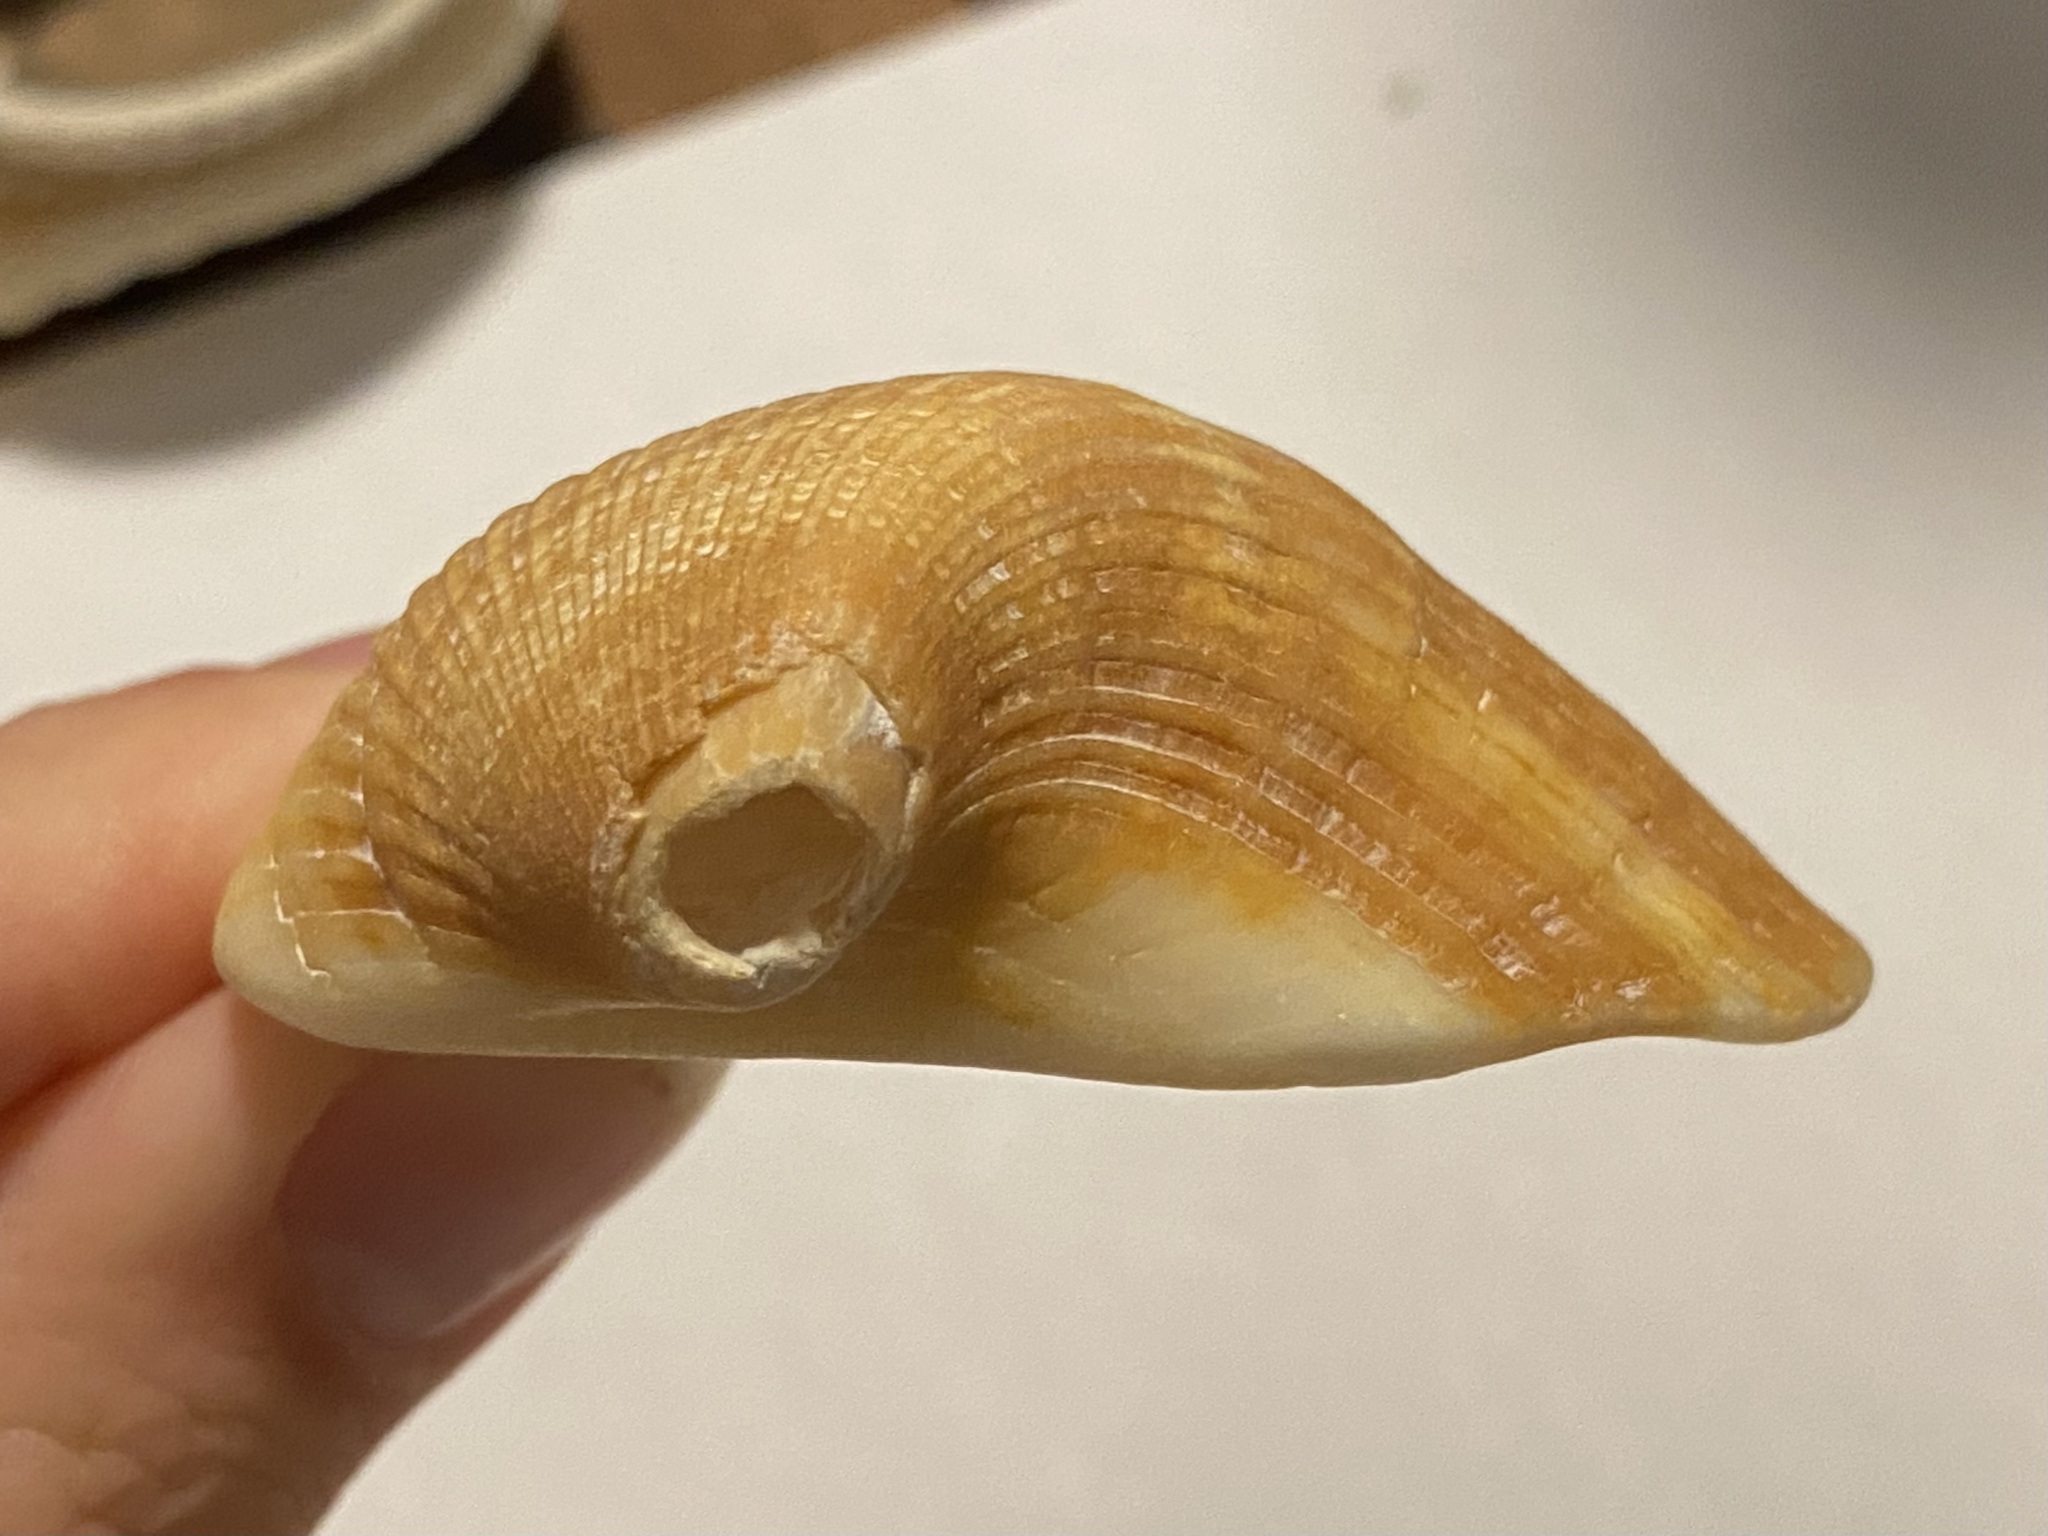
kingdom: Animalia
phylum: Mollusca
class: Bivalvia
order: Arcida
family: Noetiidae
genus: Noetia
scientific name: Noetia ponderosa
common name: Ponderous ark
